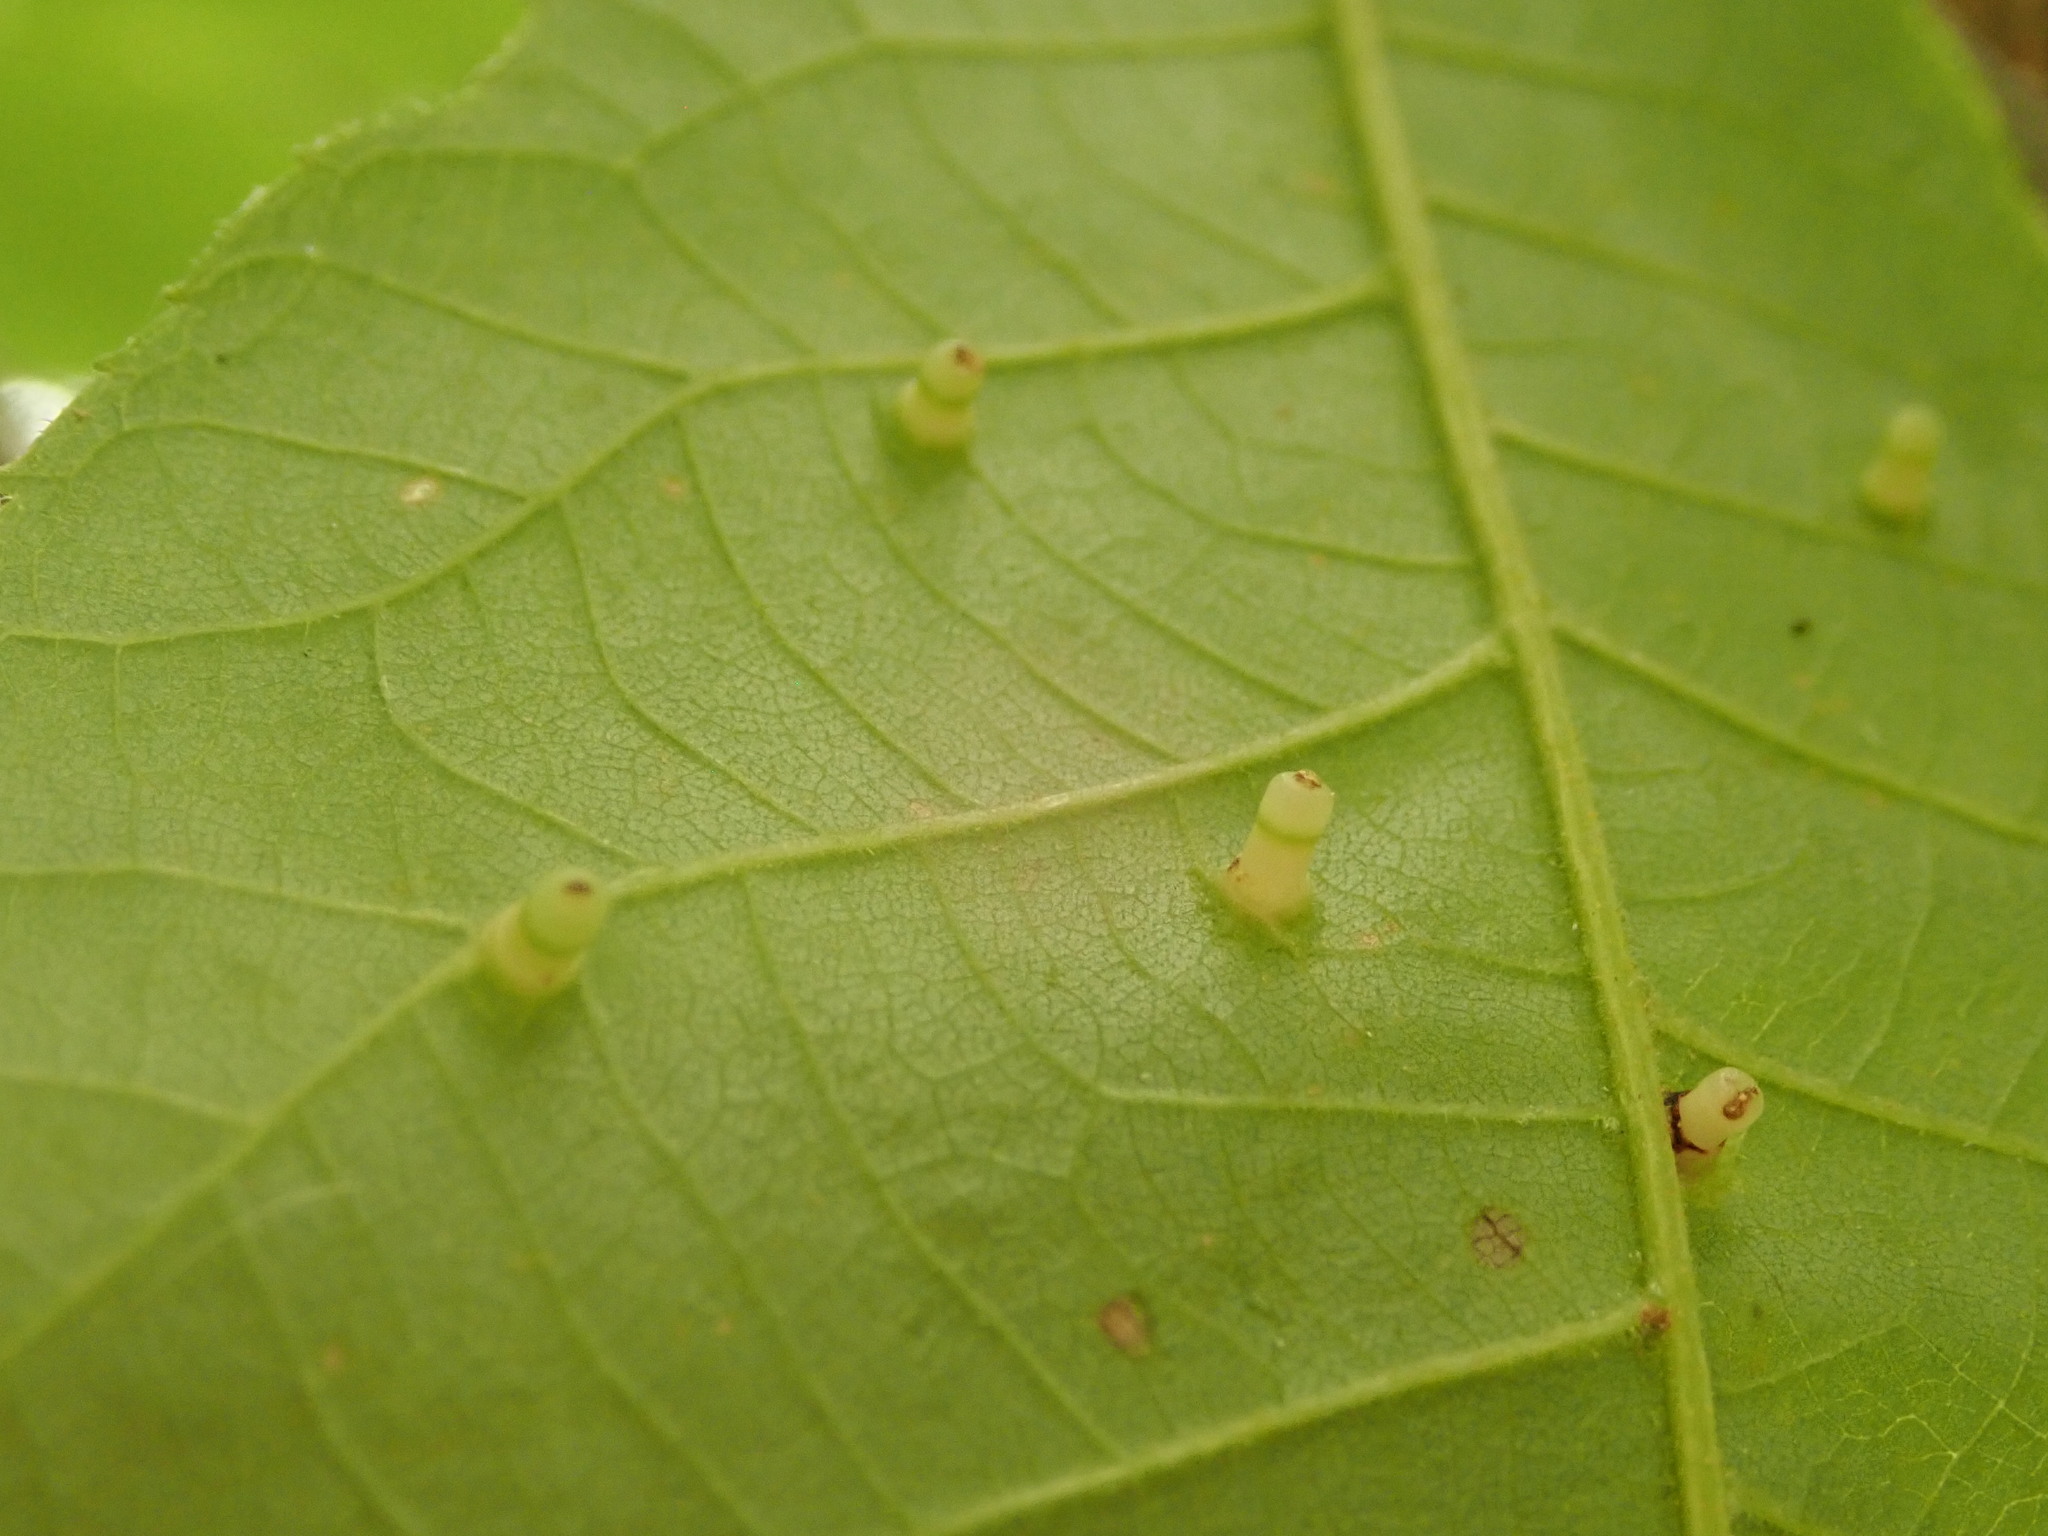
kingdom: Animalia
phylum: Arthropoda
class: Insecta
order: Diptera
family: Cecidomyiidae
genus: Caryomyia
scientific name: Caryomyia tubicola
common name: Hickory bullet gall midge
